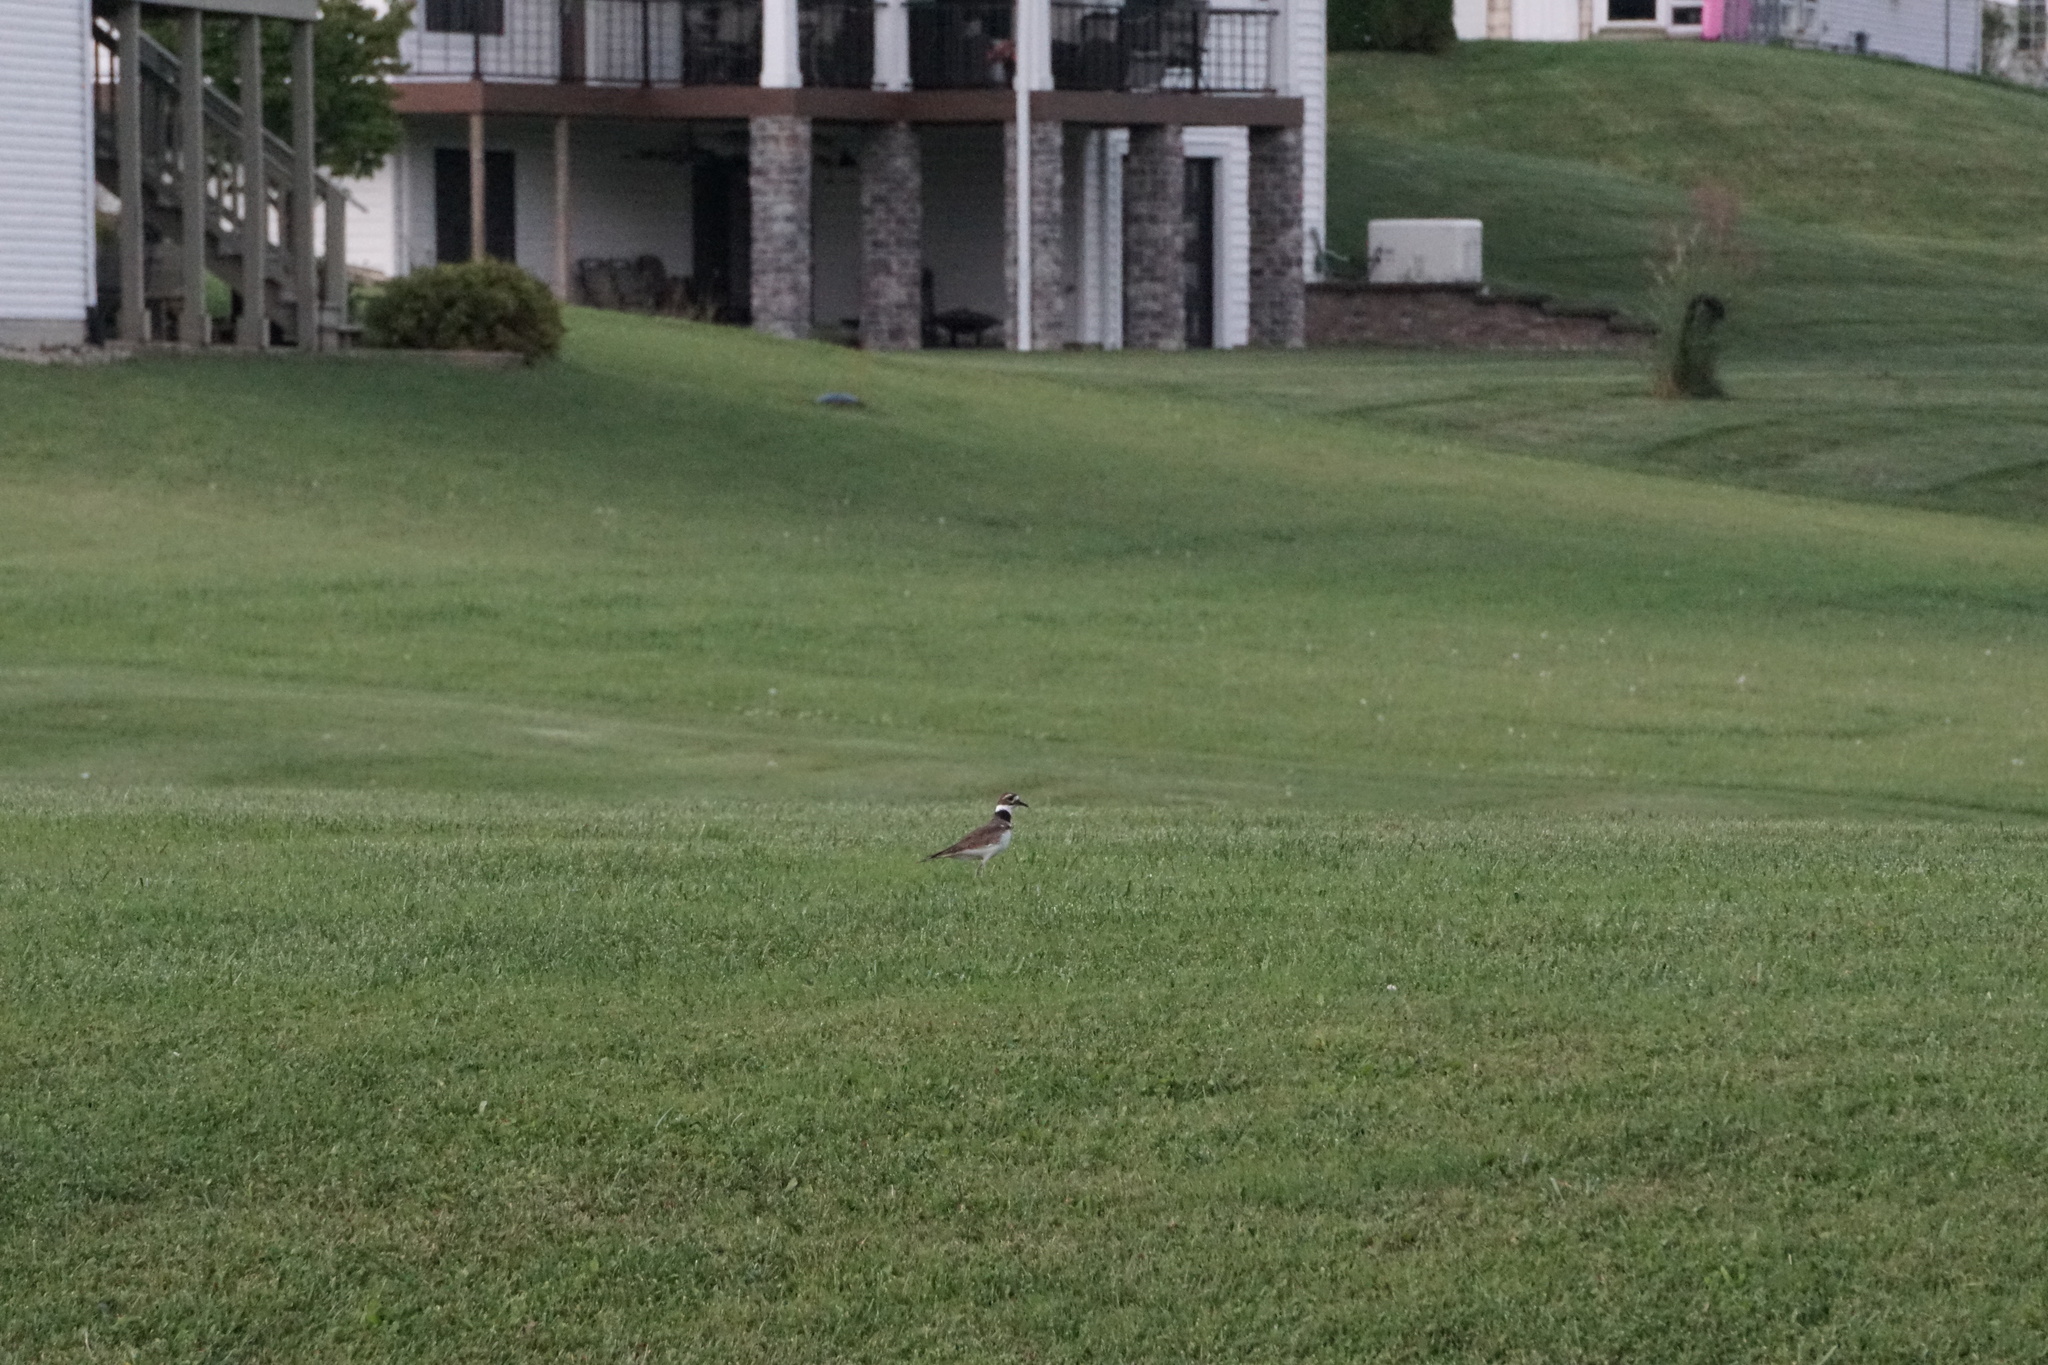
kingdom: Animalia
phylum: Chordata
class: Aves
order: Charadriiformes
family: Charadriidae
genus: Charadrius
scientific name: Charadrius vociferus
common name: Killdeer
